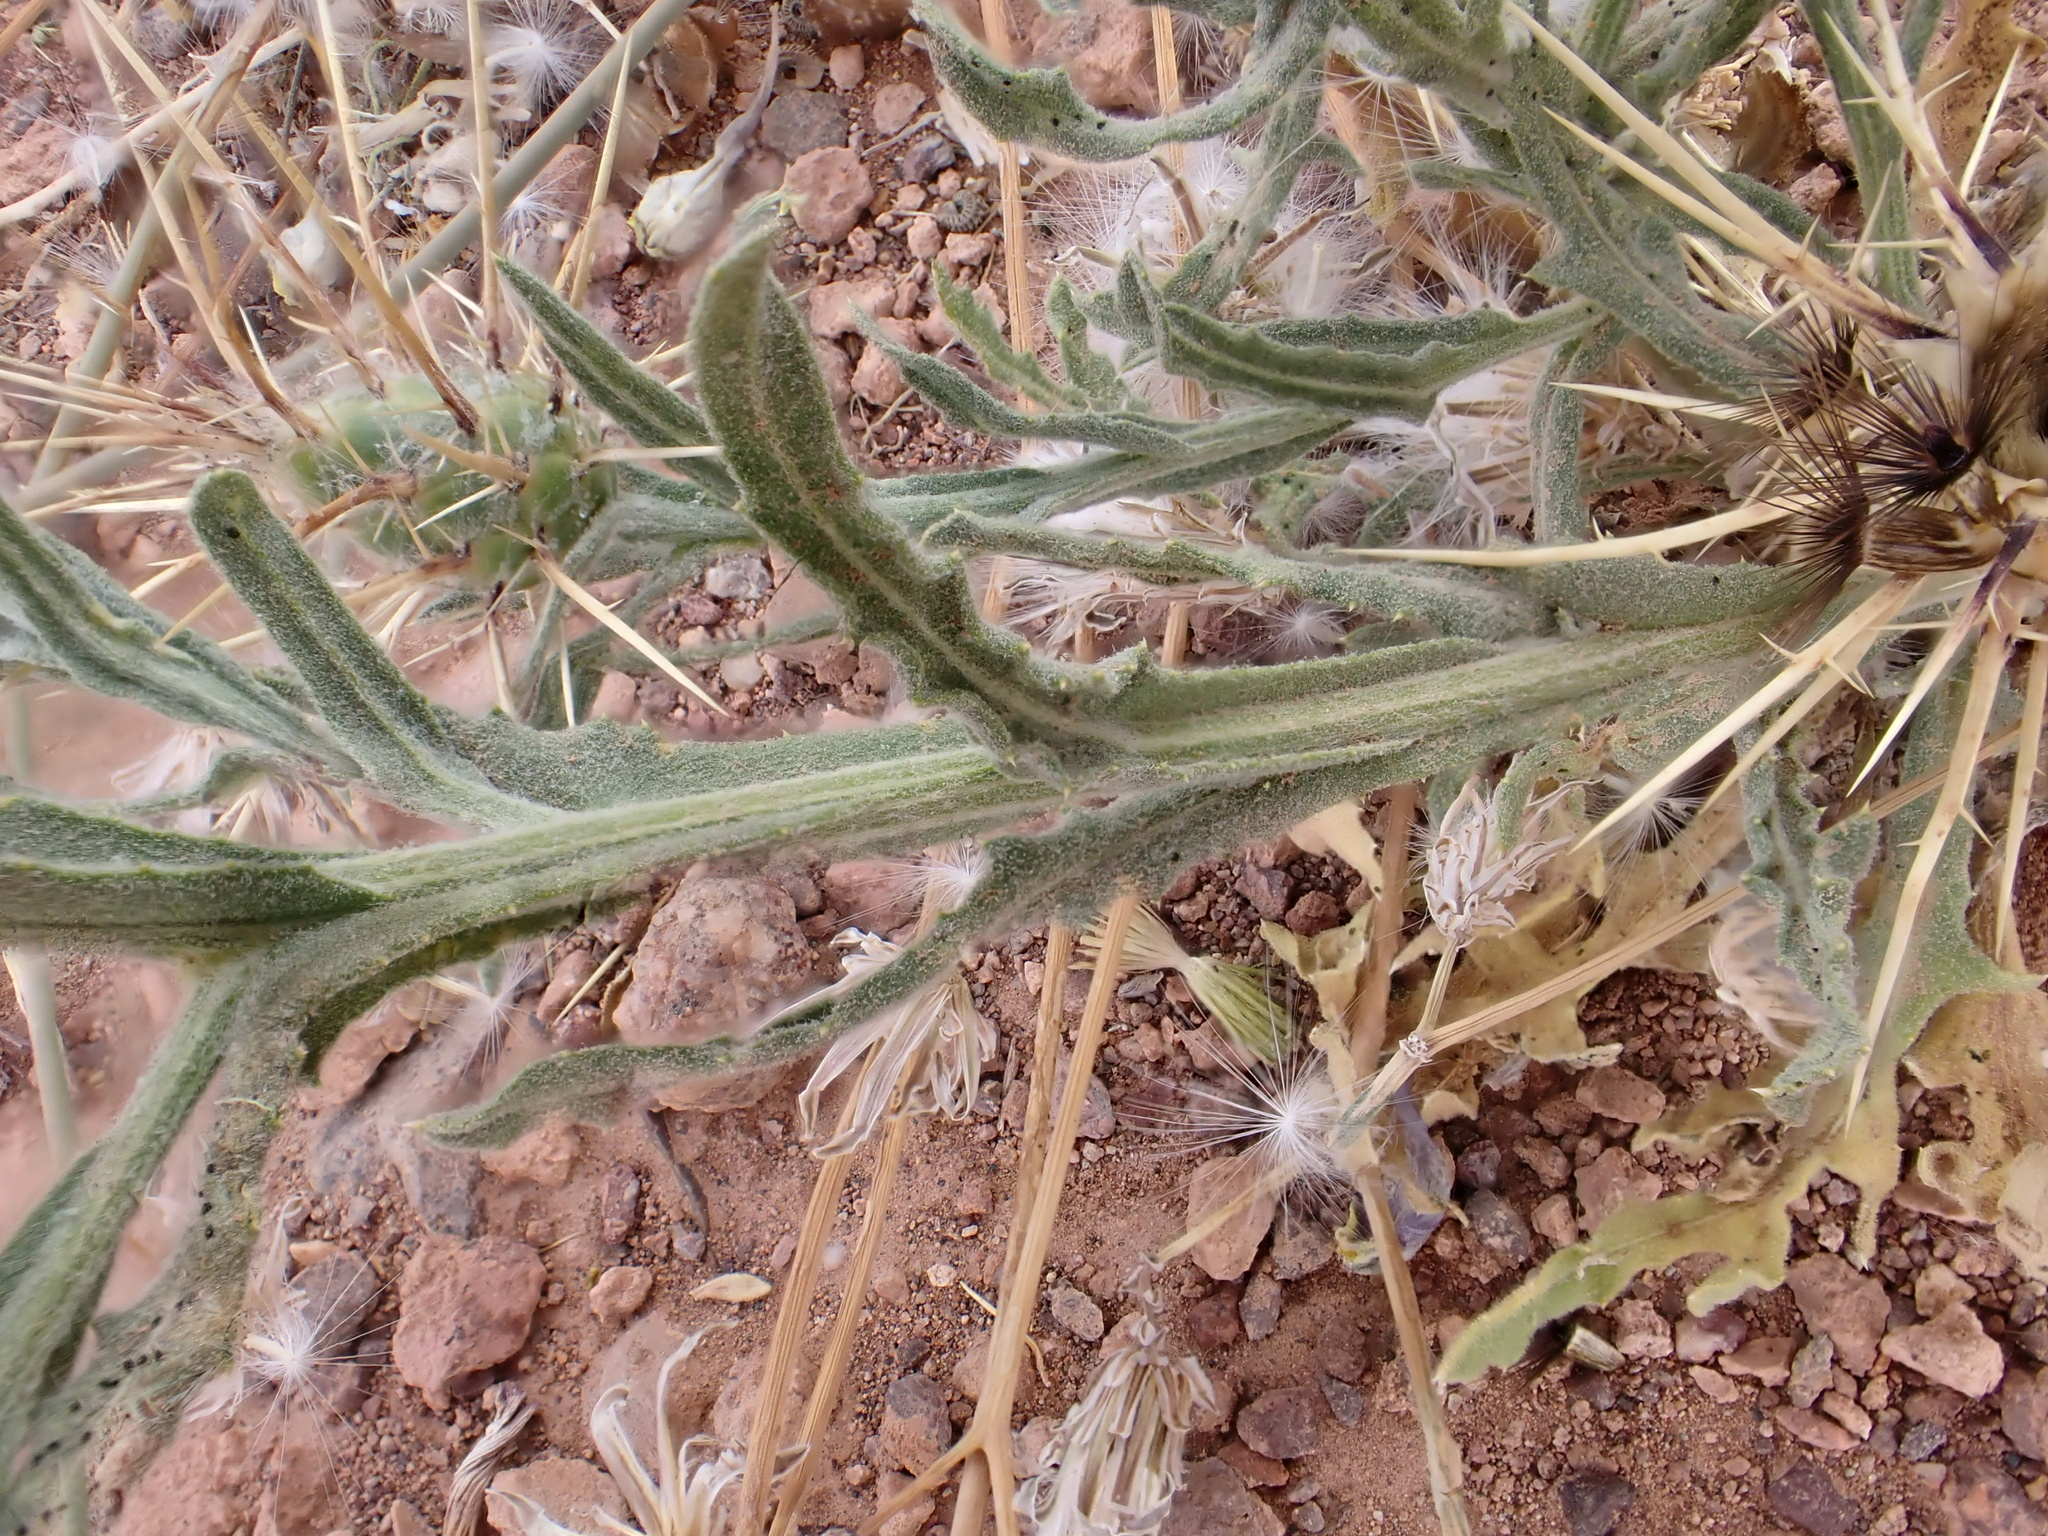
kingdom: Plantae
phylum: Tracheophyta
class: Magnoliopsida
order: Asterales
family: Asteraceae
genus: Centaurea
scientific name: Centaurea maroccana
